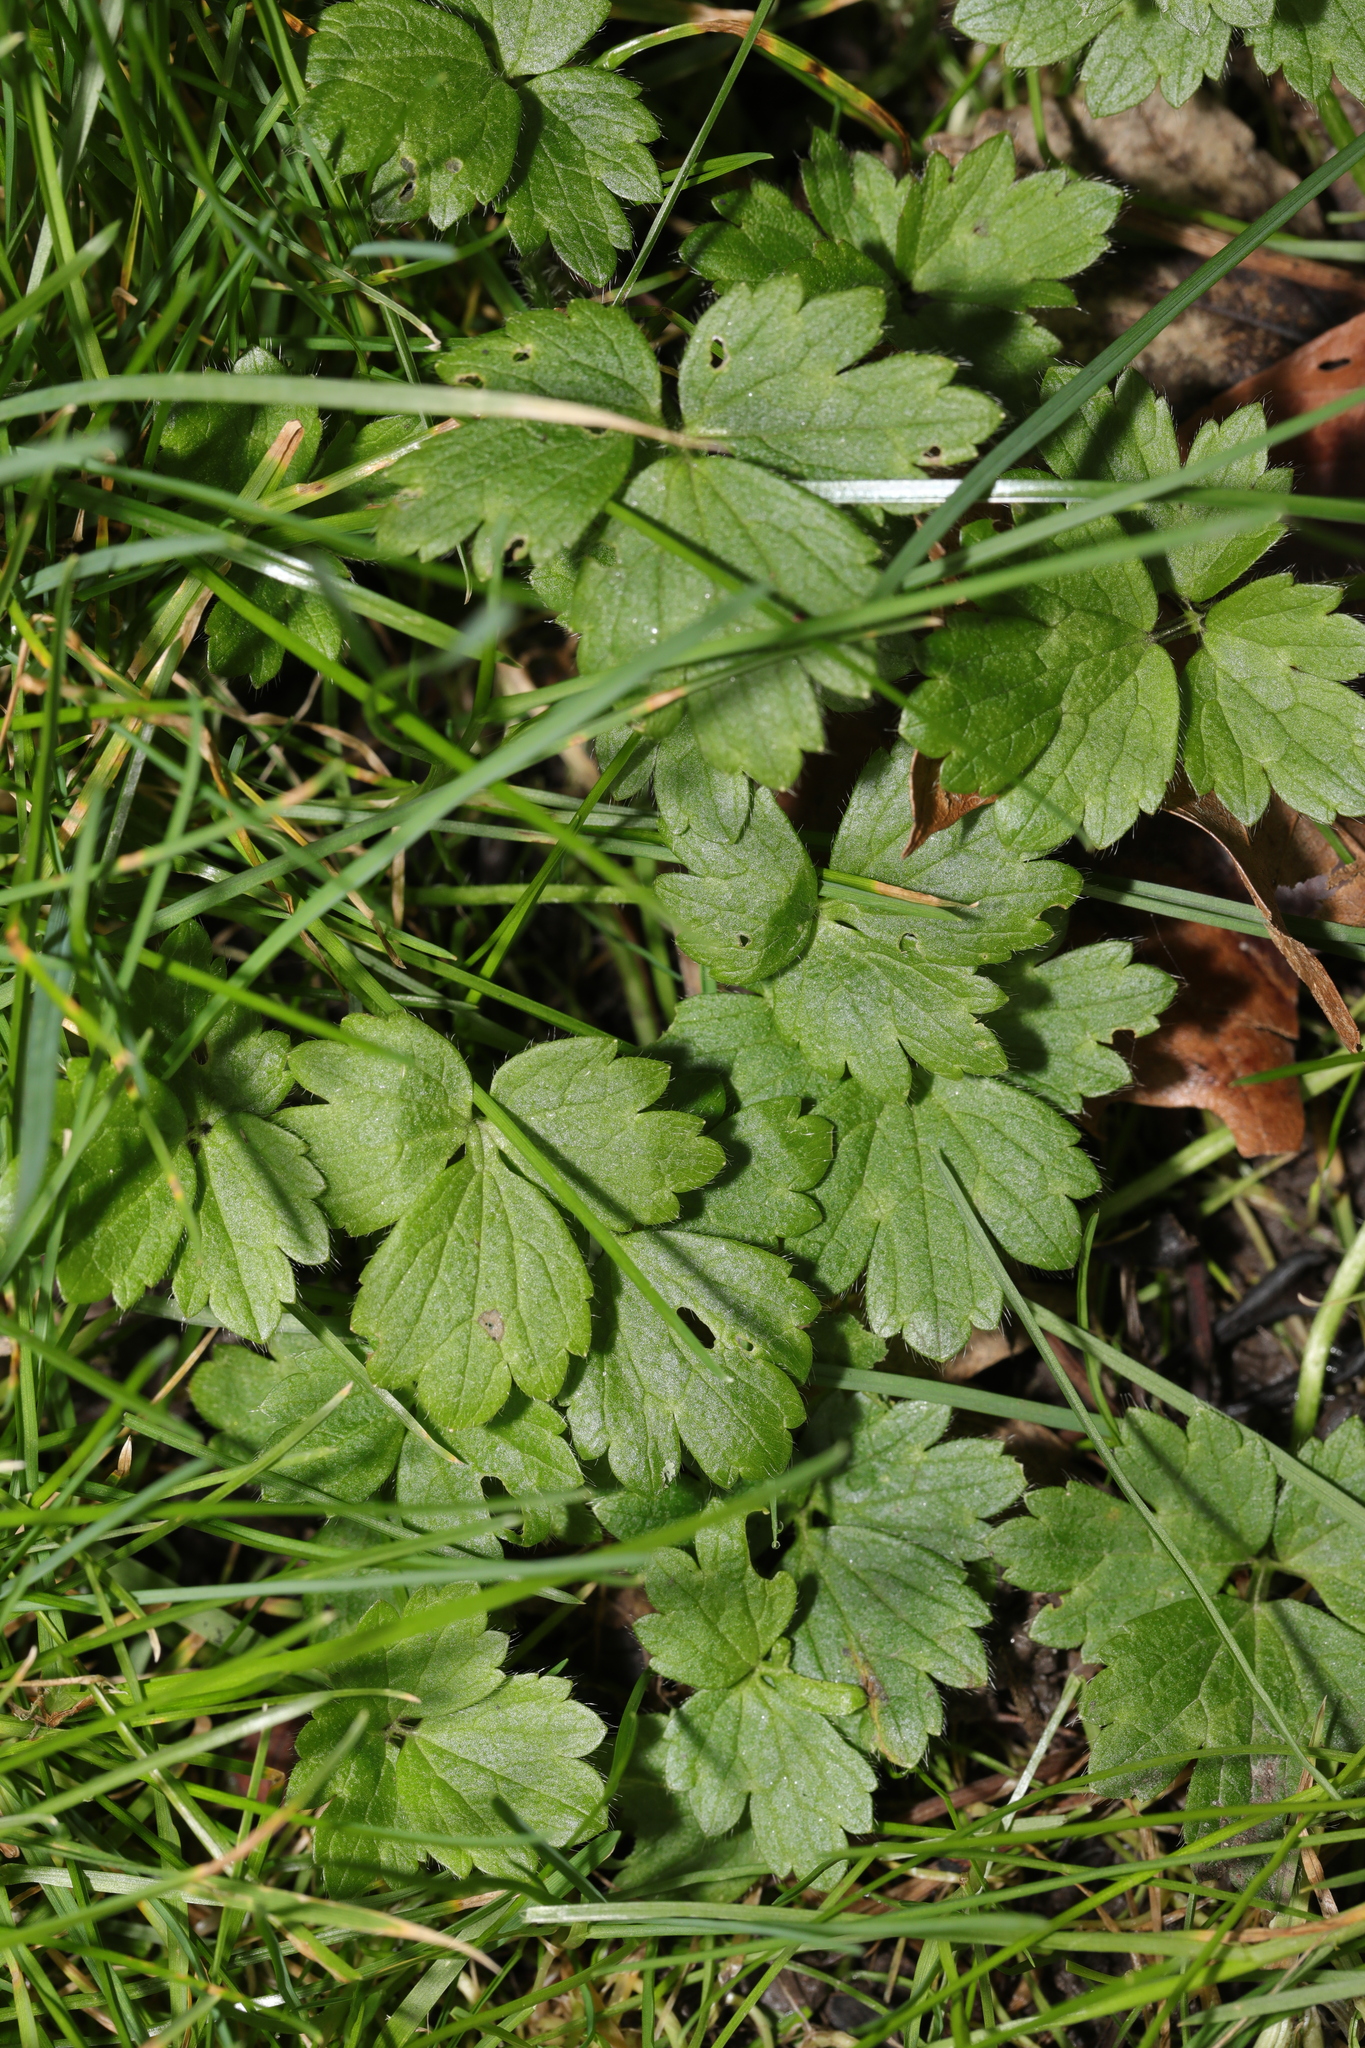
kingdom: Plantae
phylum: Tracheophyta
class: Magnoliopsida
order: Ranunculales
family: Ranunculaceae
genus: Ranunculus
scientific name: Ranunculus repens
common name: Creeping buttercup
